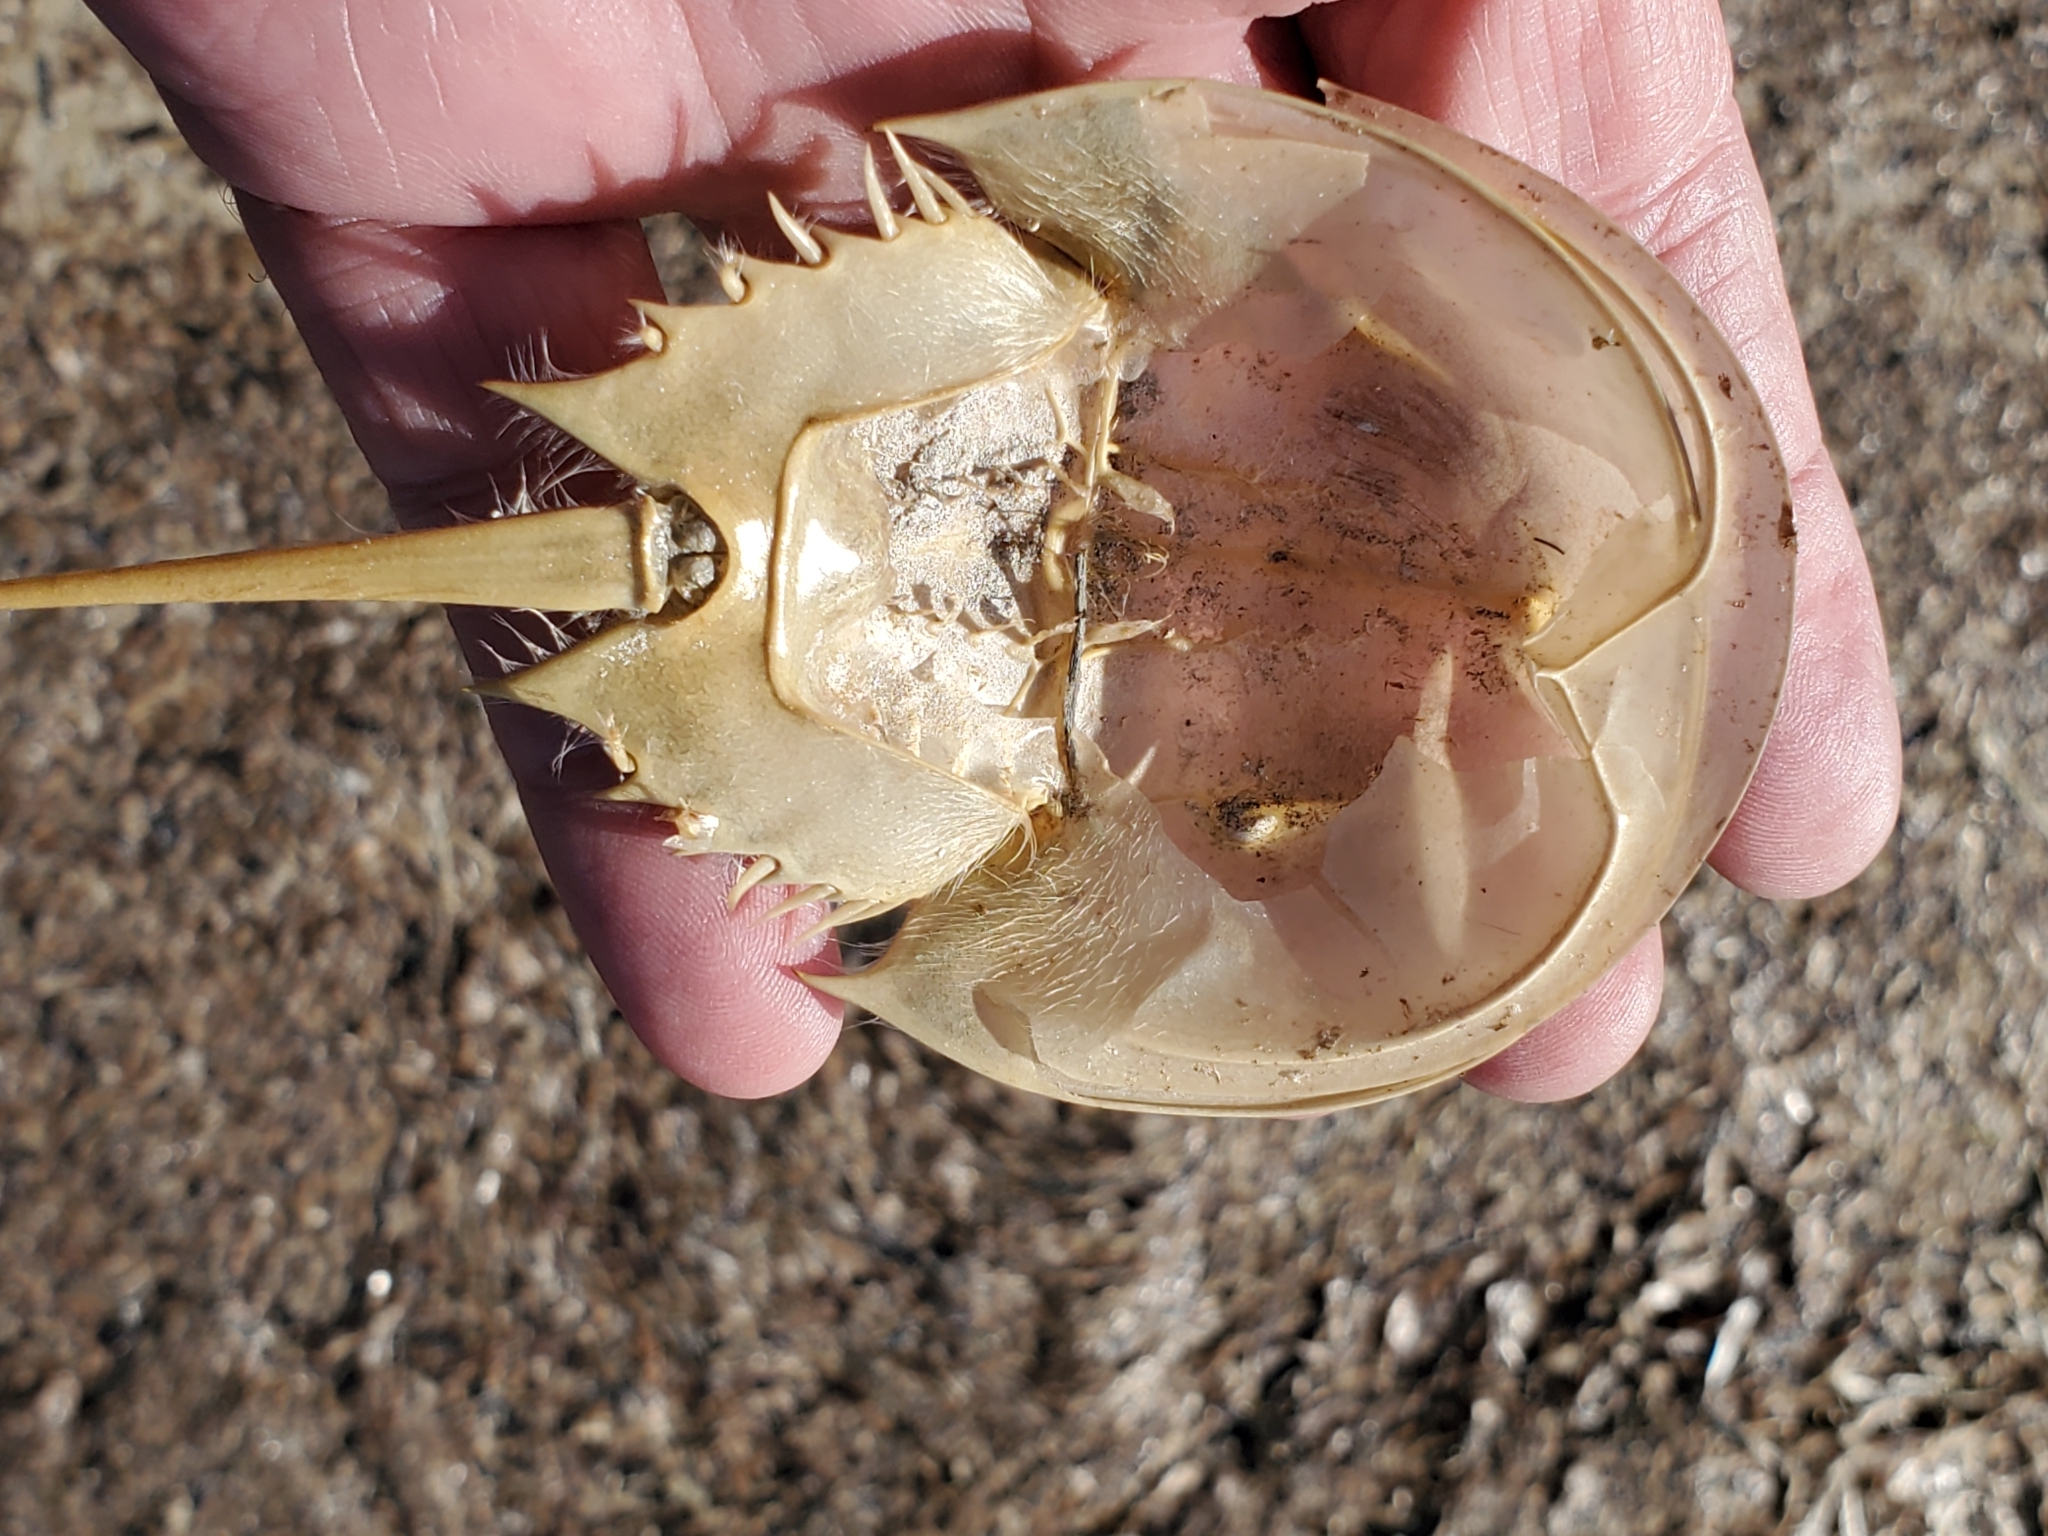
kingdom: Animalia
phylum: Arthropoda
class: Merostomata
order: Xiphosurida
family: Limulidae
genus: Limulus
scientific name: Limulus polyphemus
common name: Horseshoe crab
